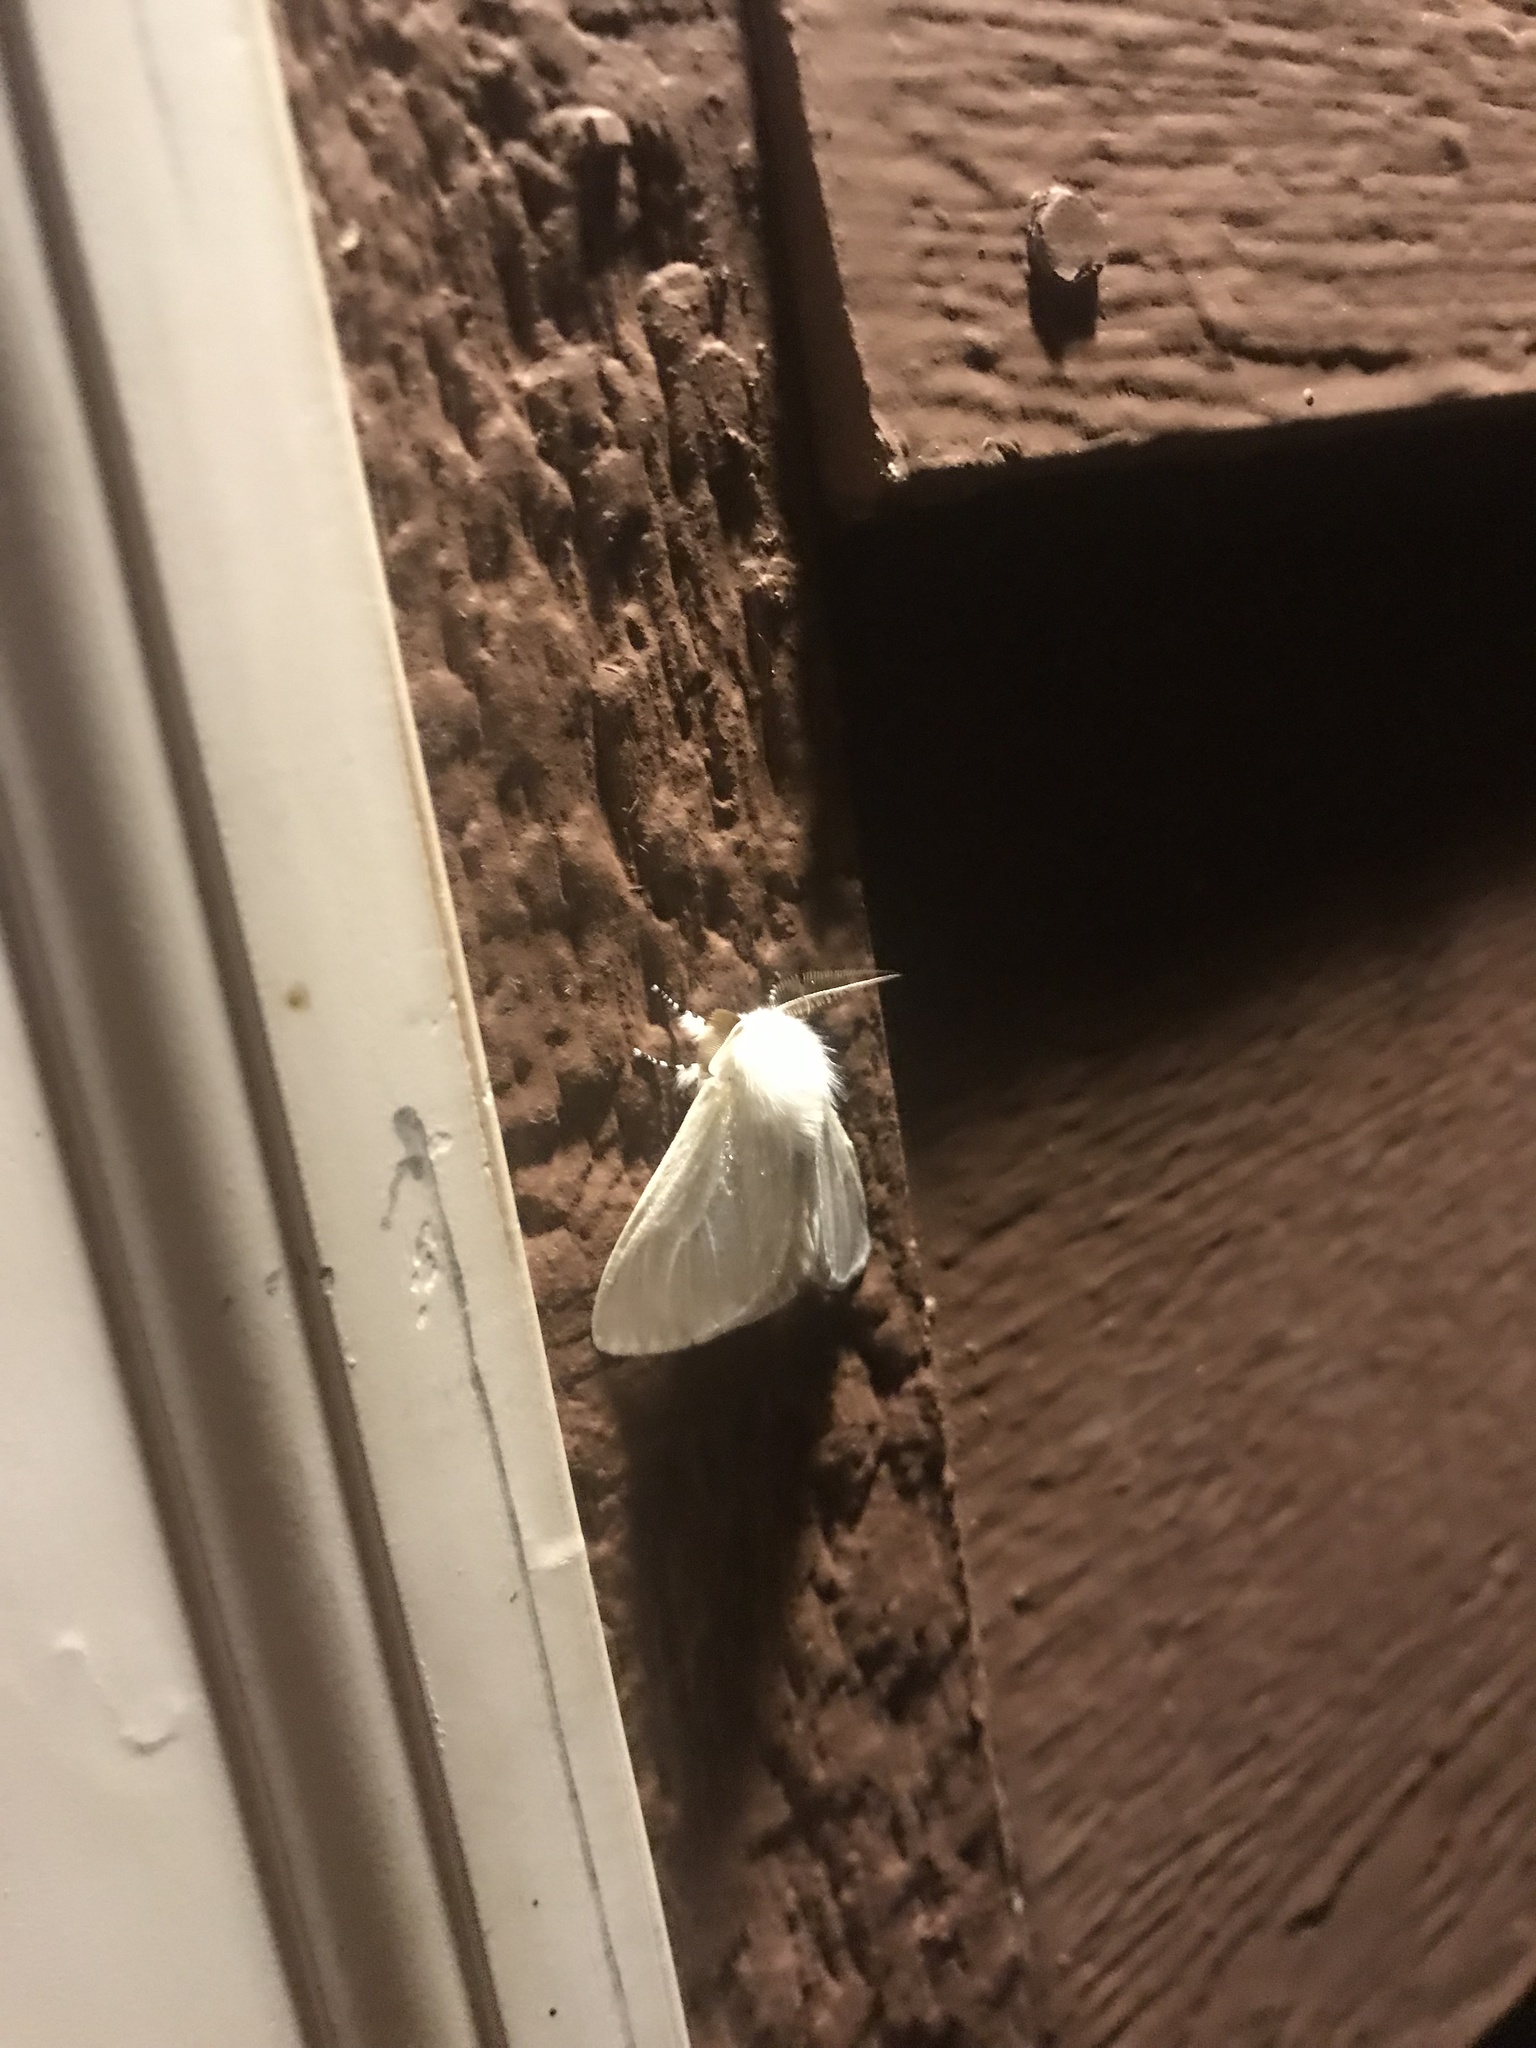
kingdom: Animalia
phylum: Arthropoda
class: Insecta
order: Lepidoptera
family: Erebidae
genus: Leucoma
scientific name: Leucoma salicis
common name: White satin moth
